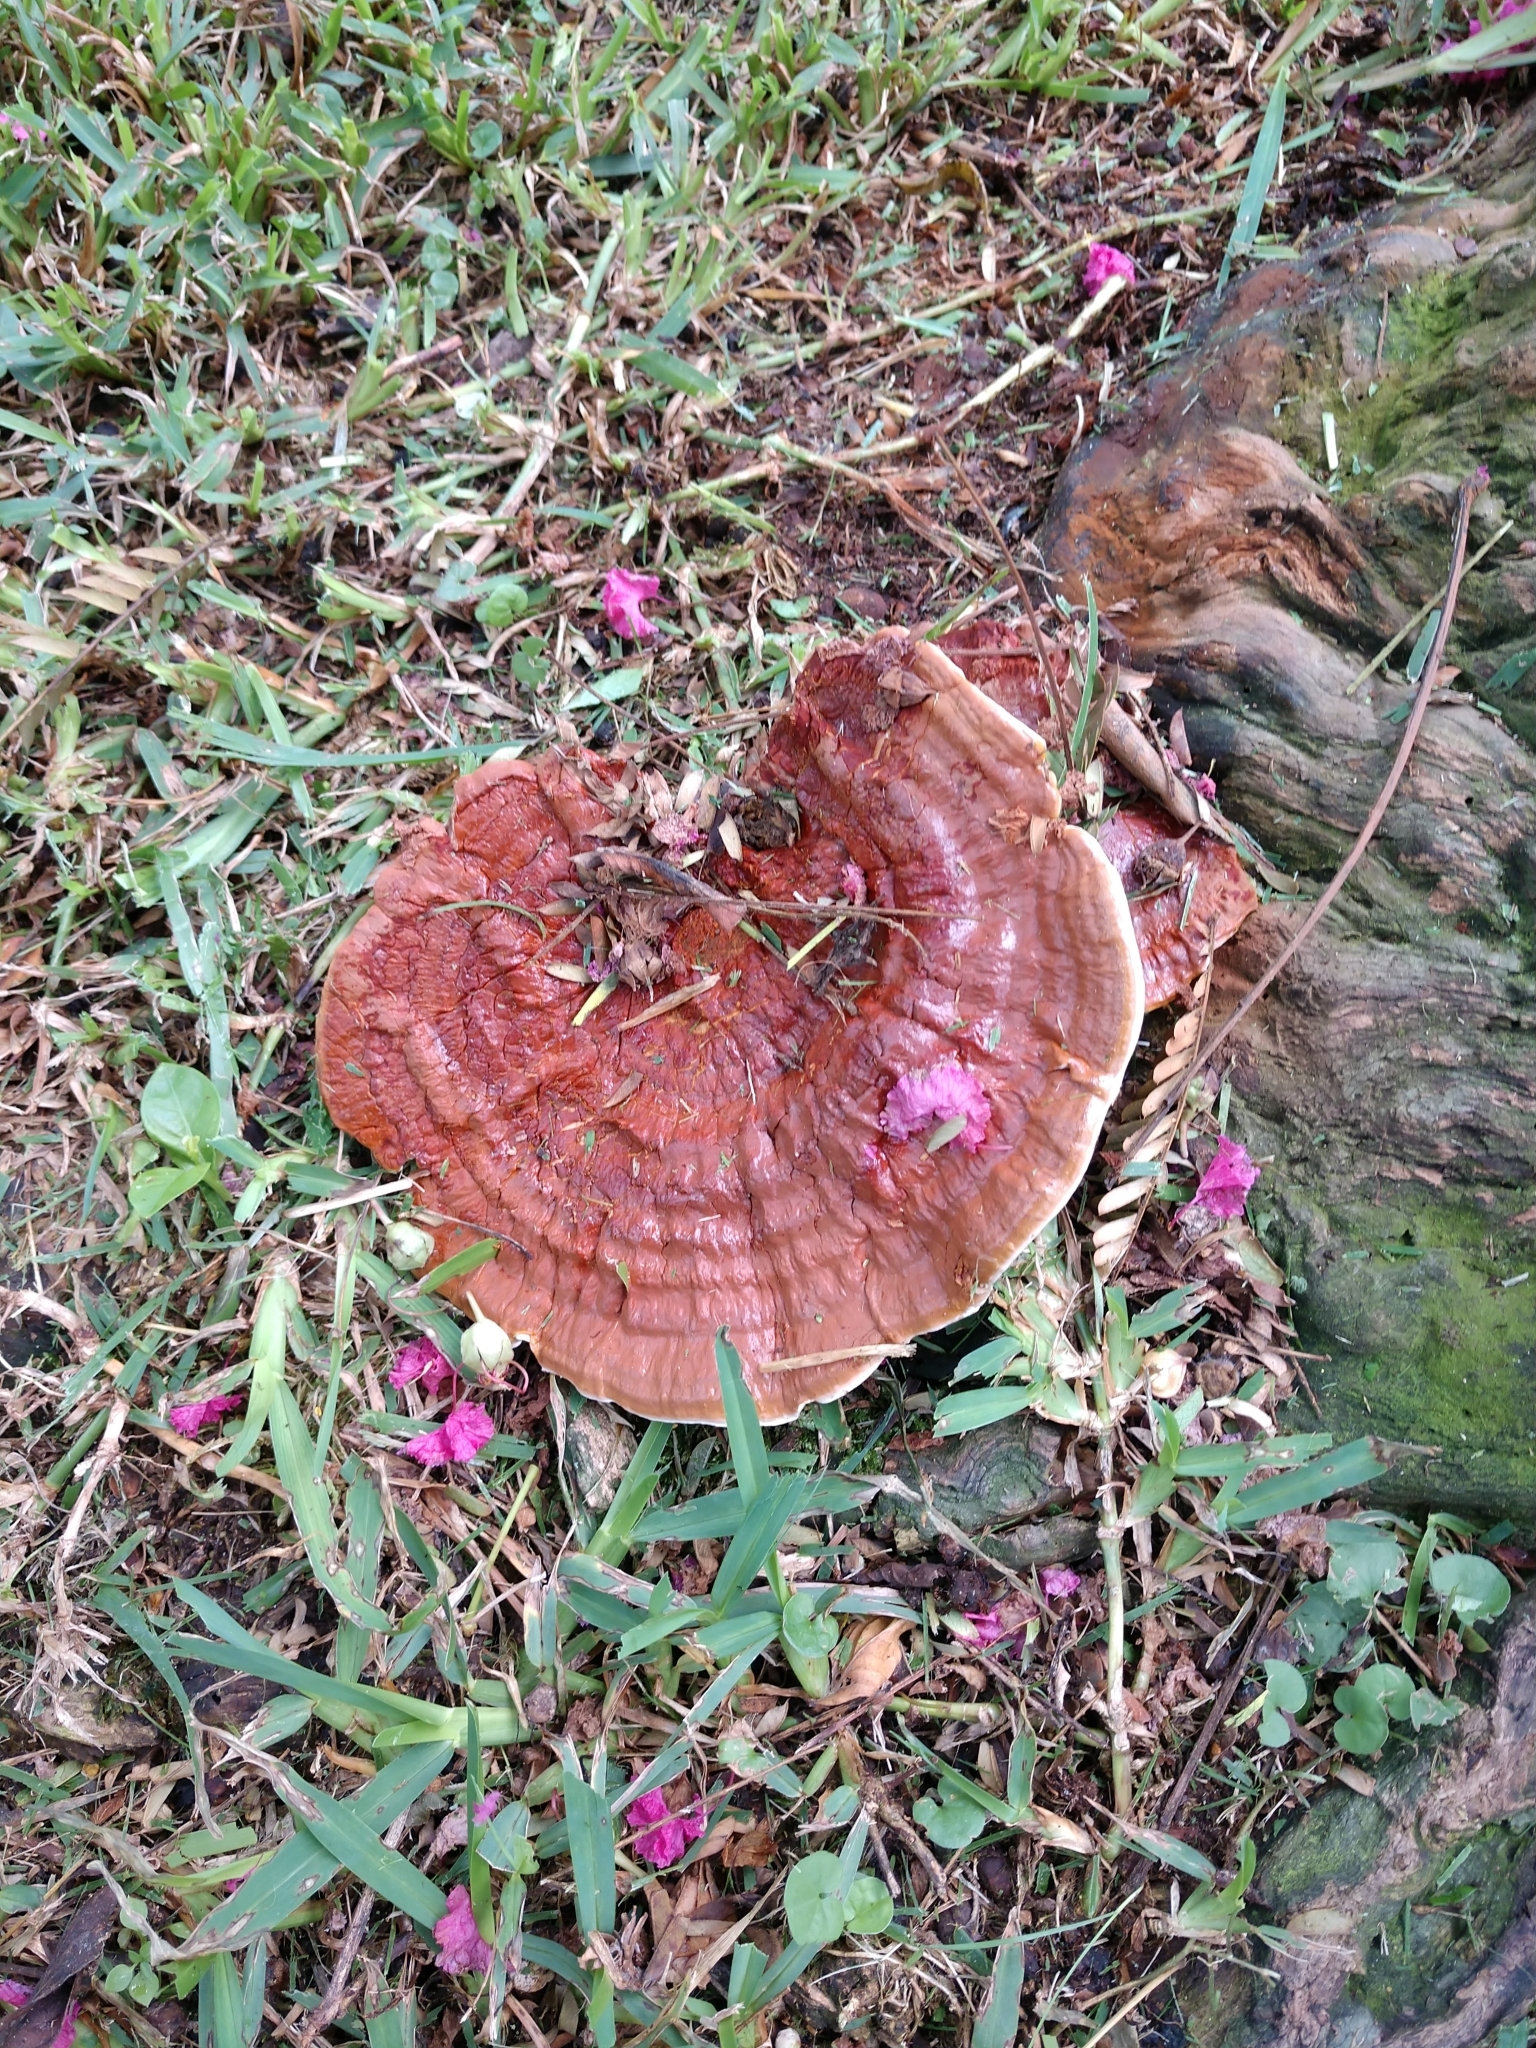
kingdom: Fungi
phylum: Basidiomycota
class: Agaricomycetes
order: Polyporales
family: Polyporaceae
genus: Ganoderma
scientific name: Ganoderma resinaceum
